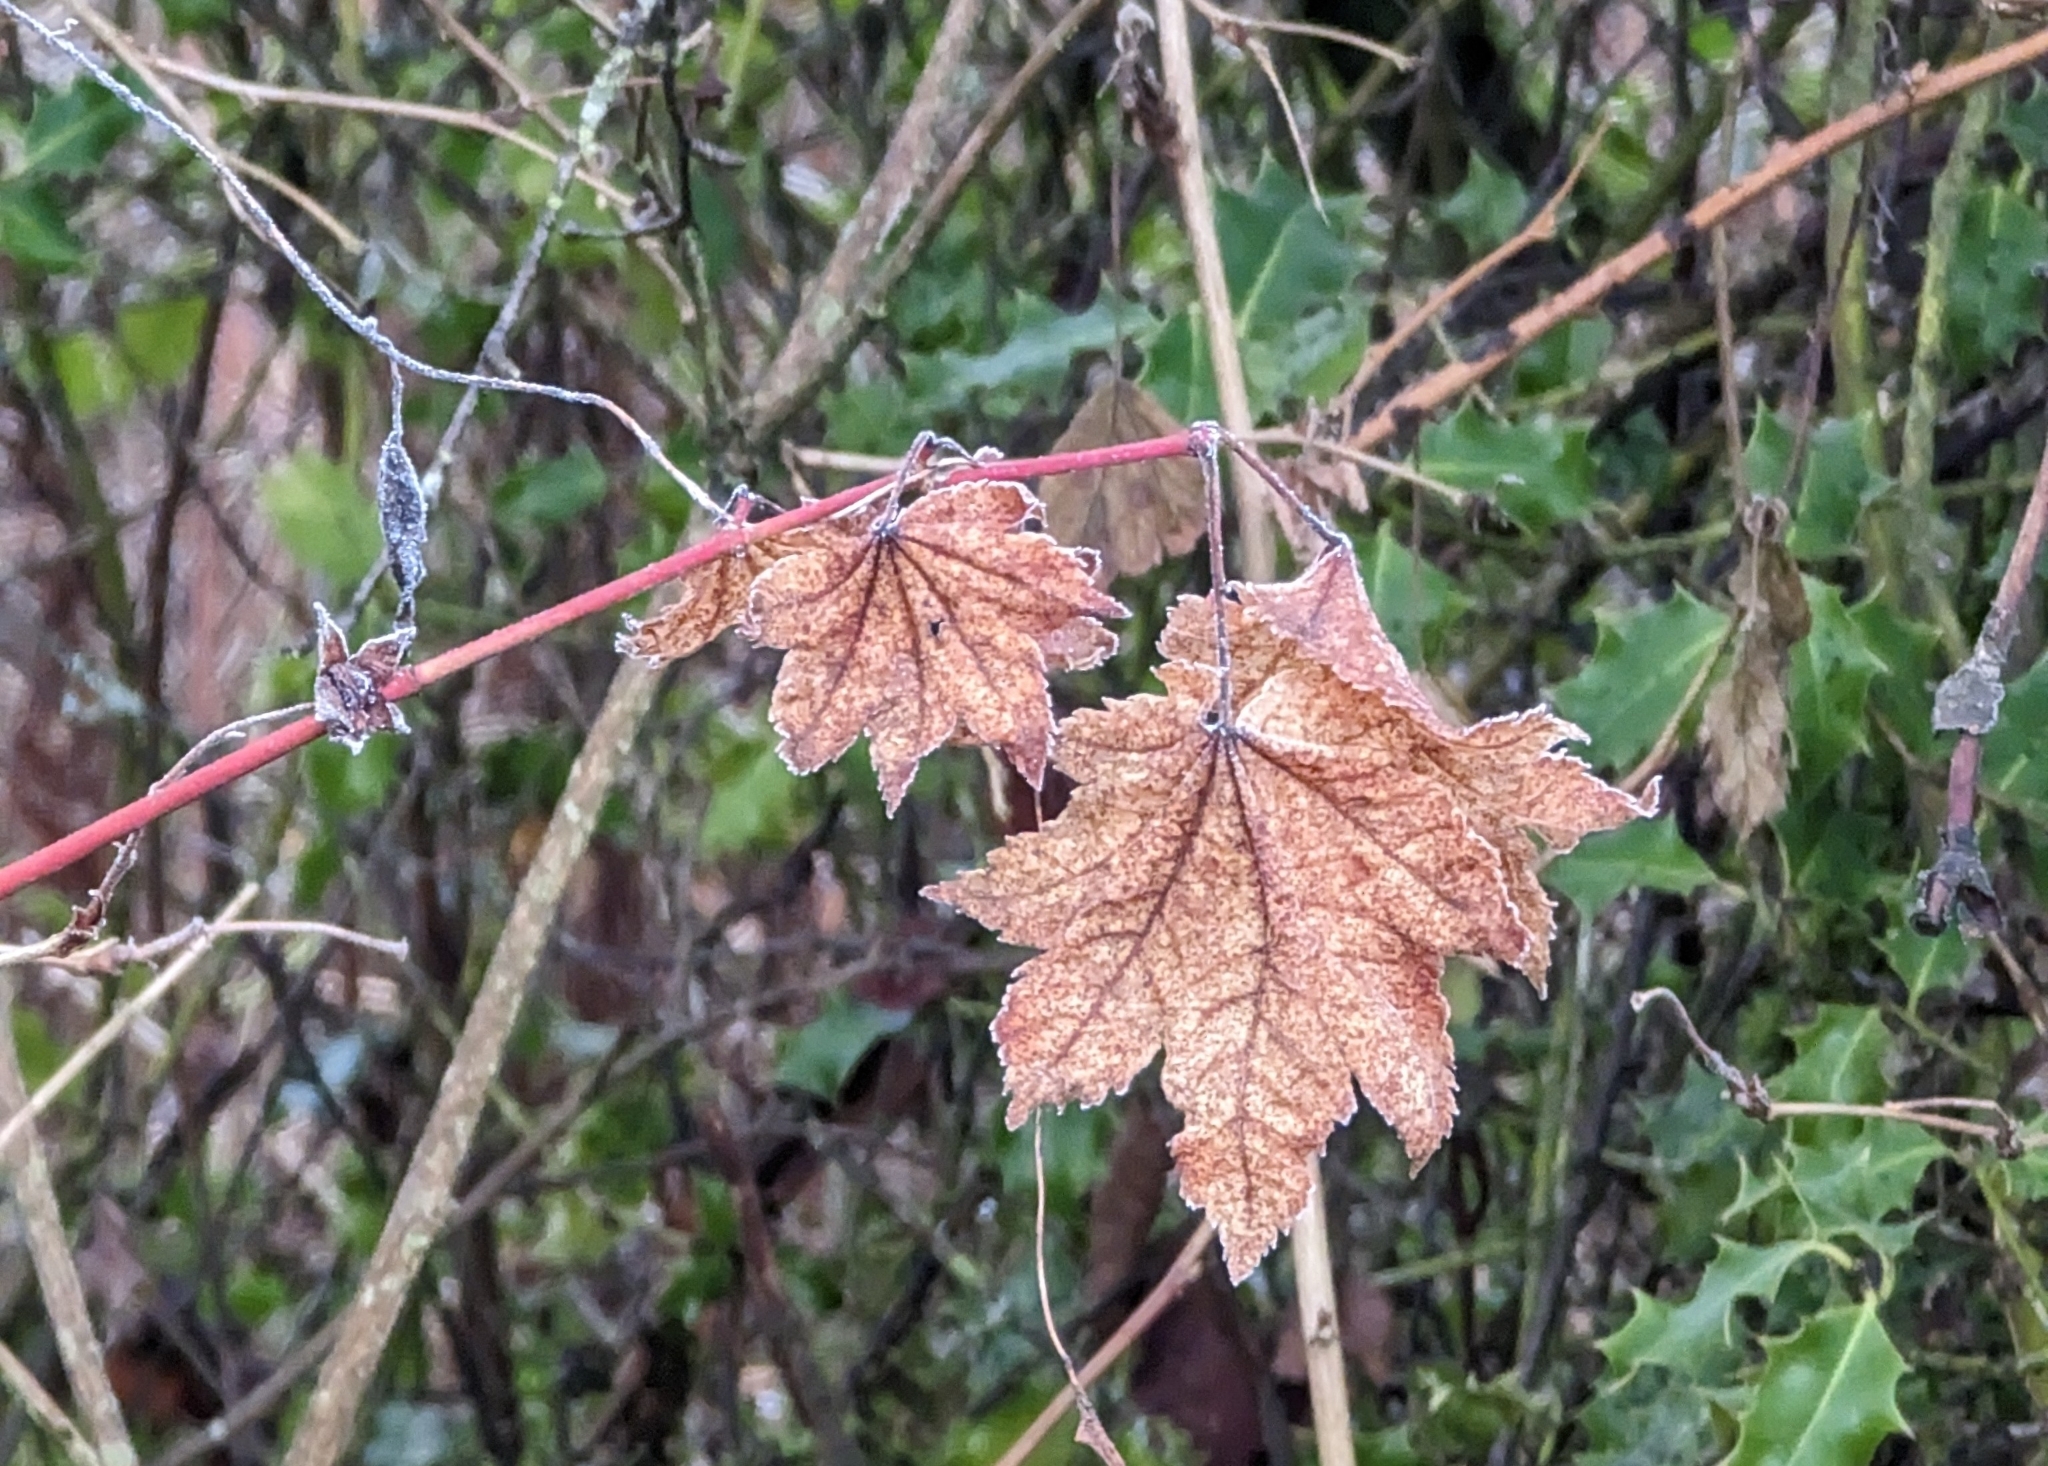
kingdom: Plantae
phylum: Tracheophyta
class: Magnoliopsida
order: Sapindales
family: Sapindaceae
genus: Acer
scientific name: Acer circinatum
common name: Vine maple
